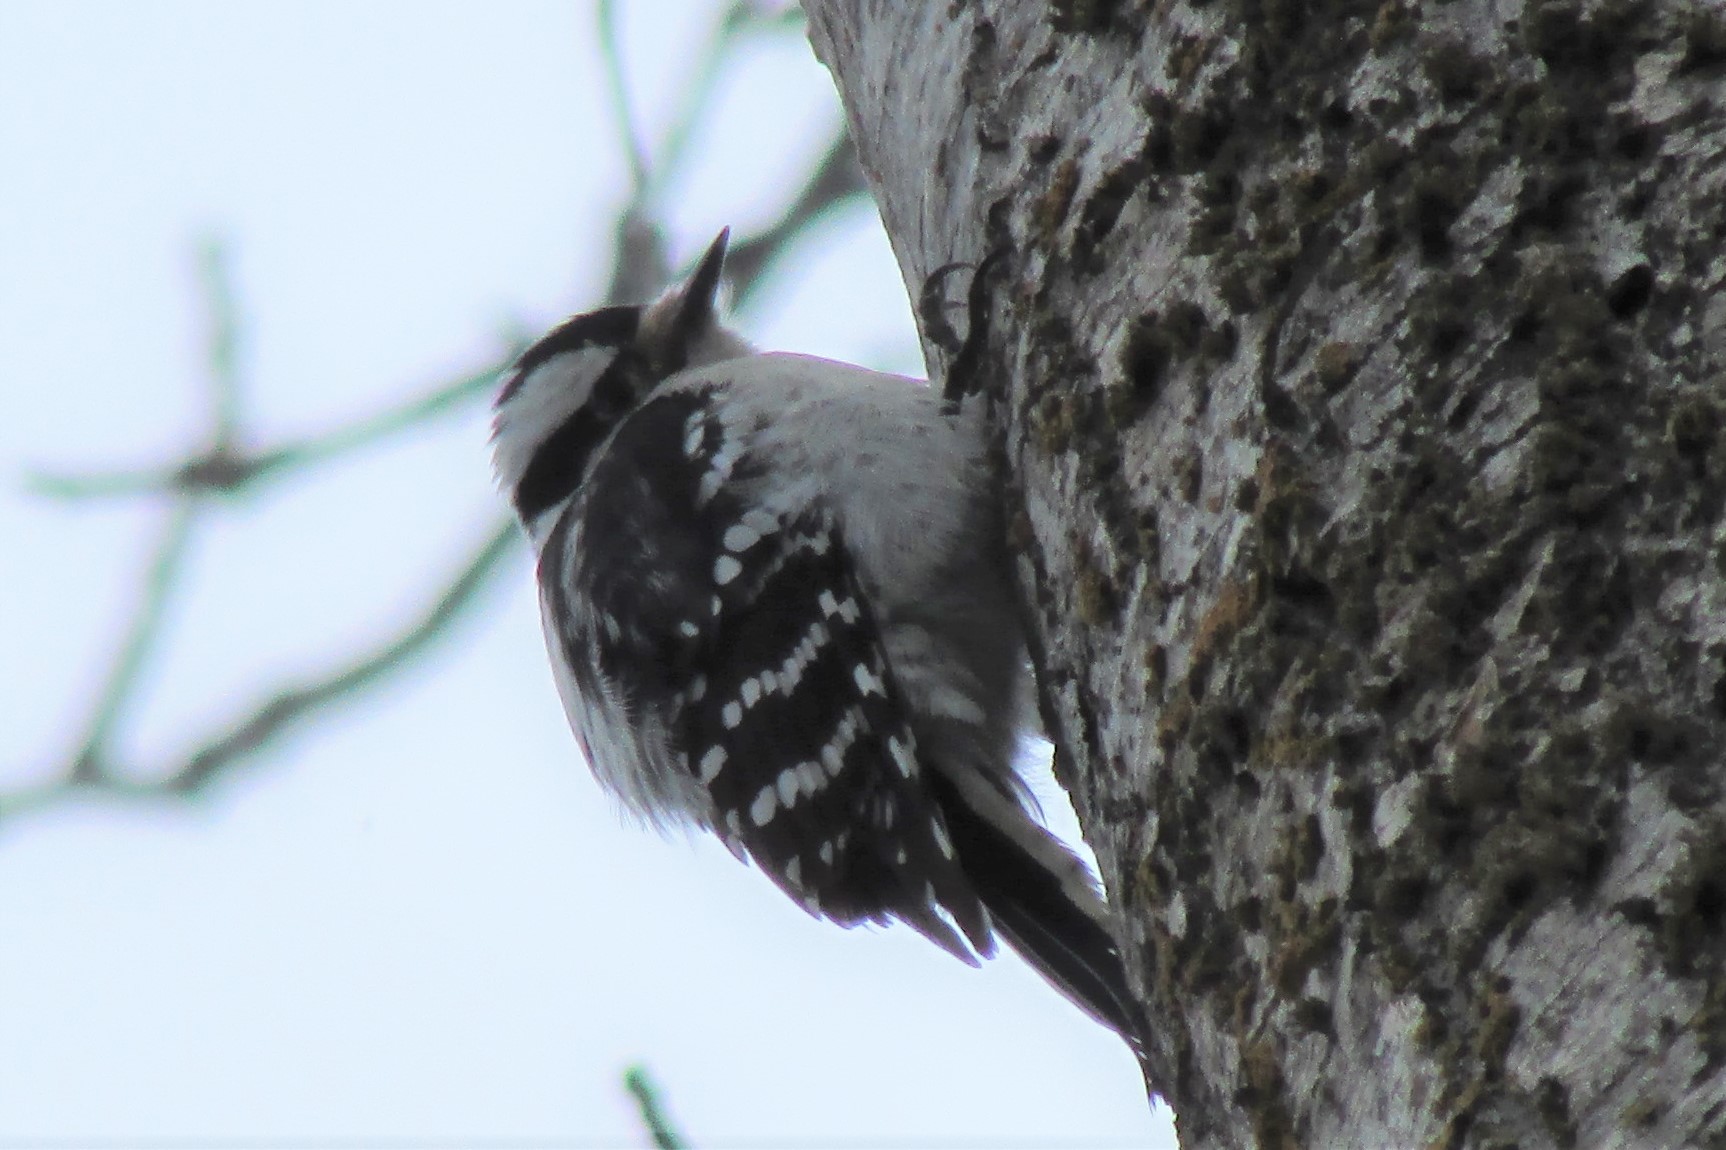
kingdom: Animalia
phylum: Chordata
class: Aves
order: Piciformes
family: Picidae
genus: Dryobates
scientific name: Dryobates pubescens
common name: Downy woodpecker
